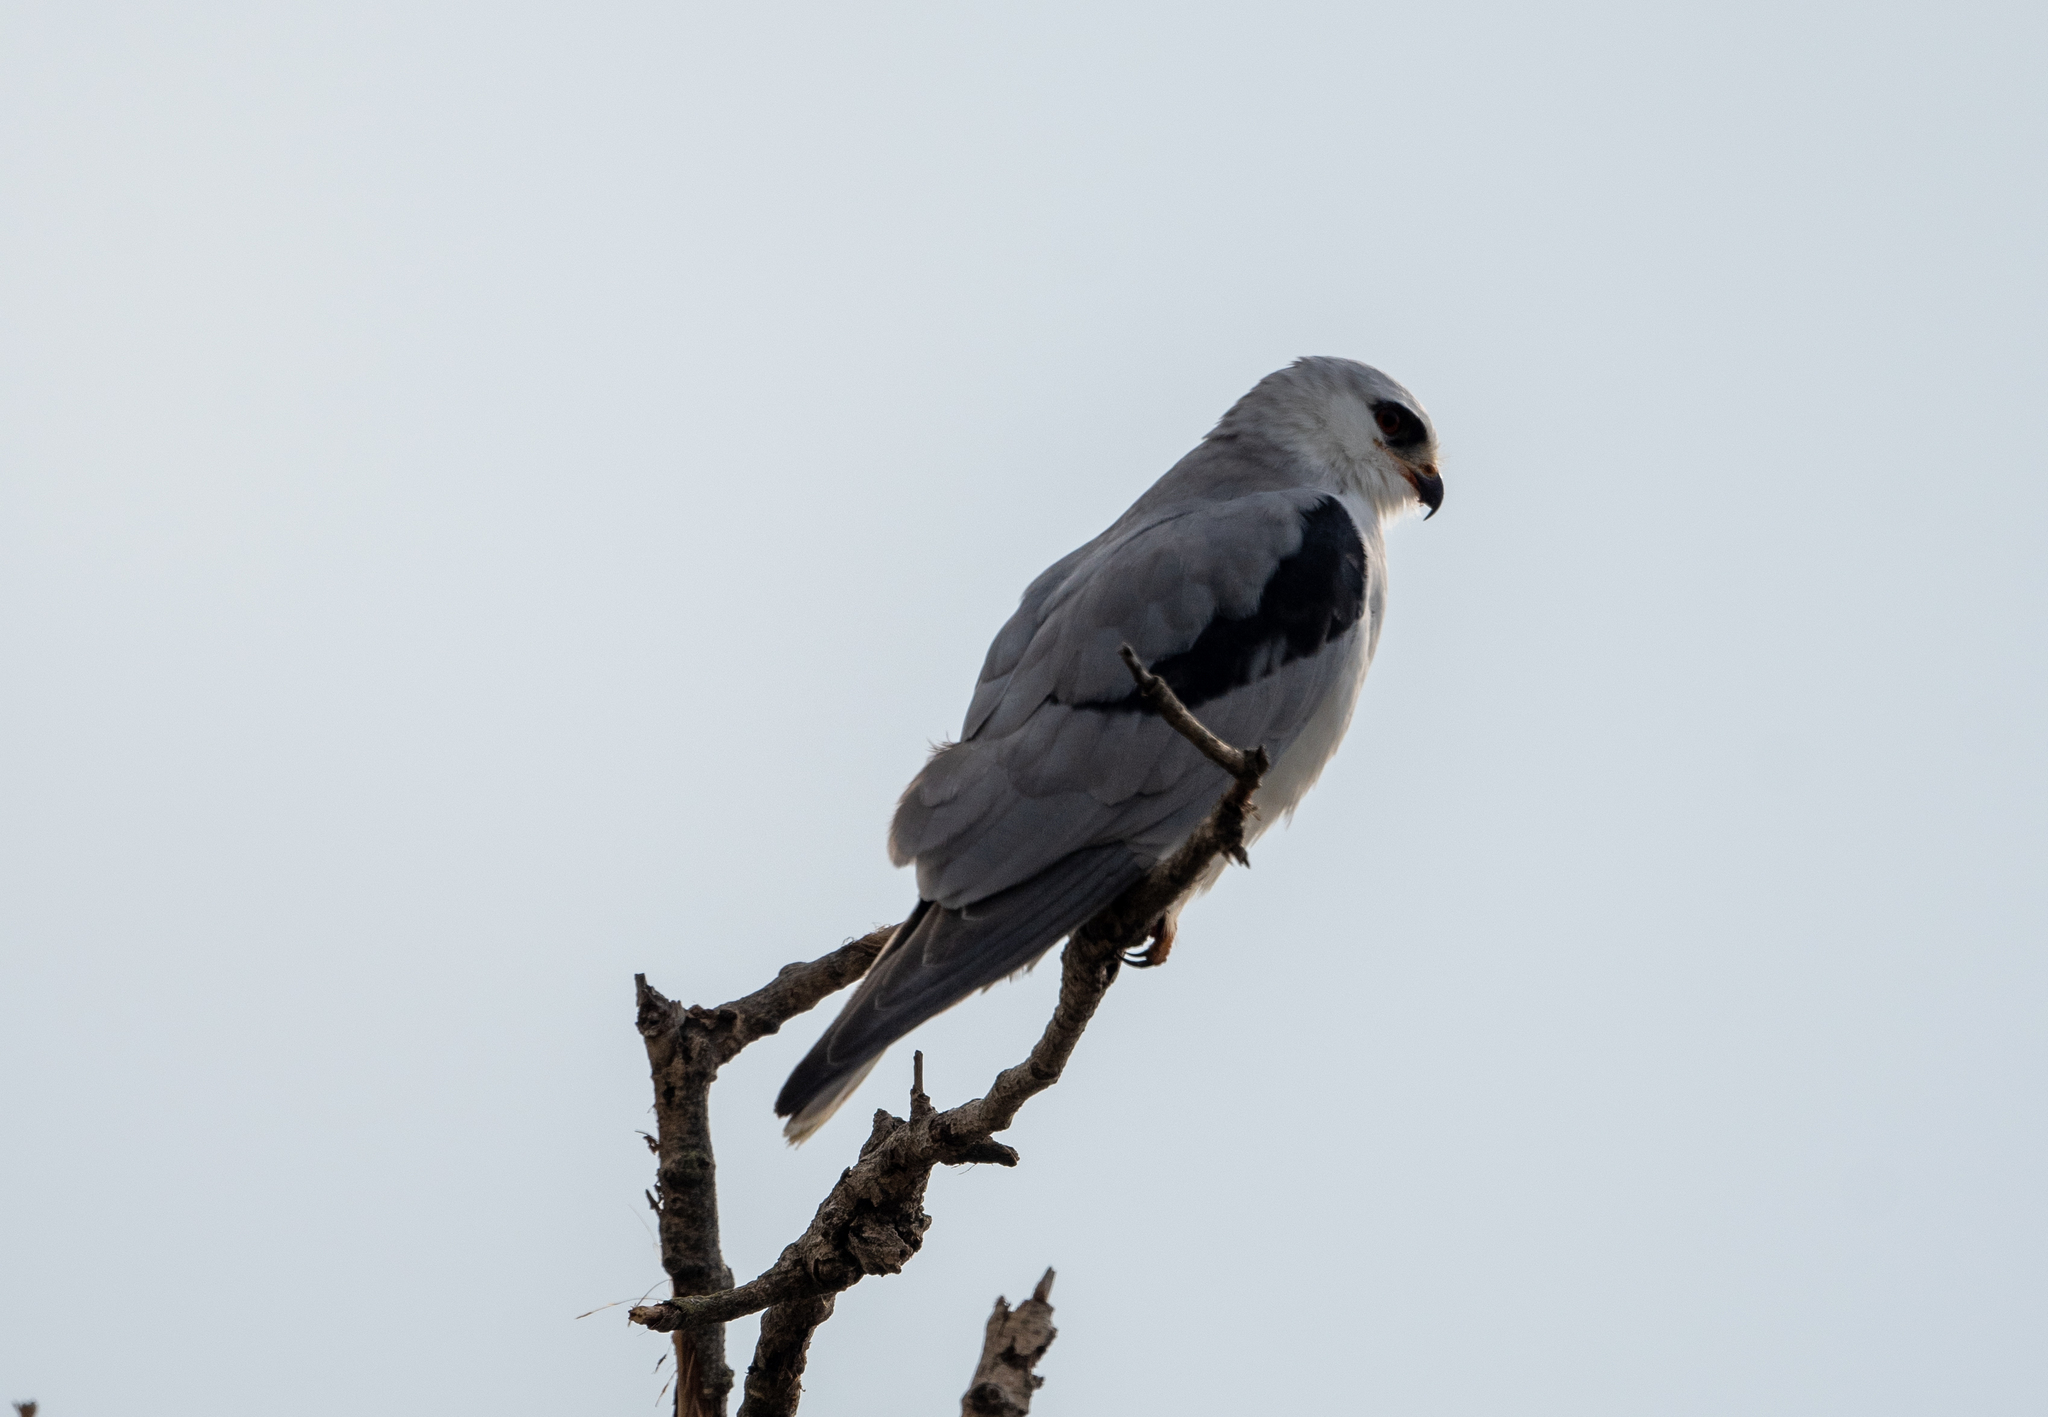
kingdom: Animalia
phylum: Chordata
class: Aves
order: Accipitriformes
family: Accipitridae
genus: Elanus
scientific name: Elanus leucurus
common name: White-tailed kite
